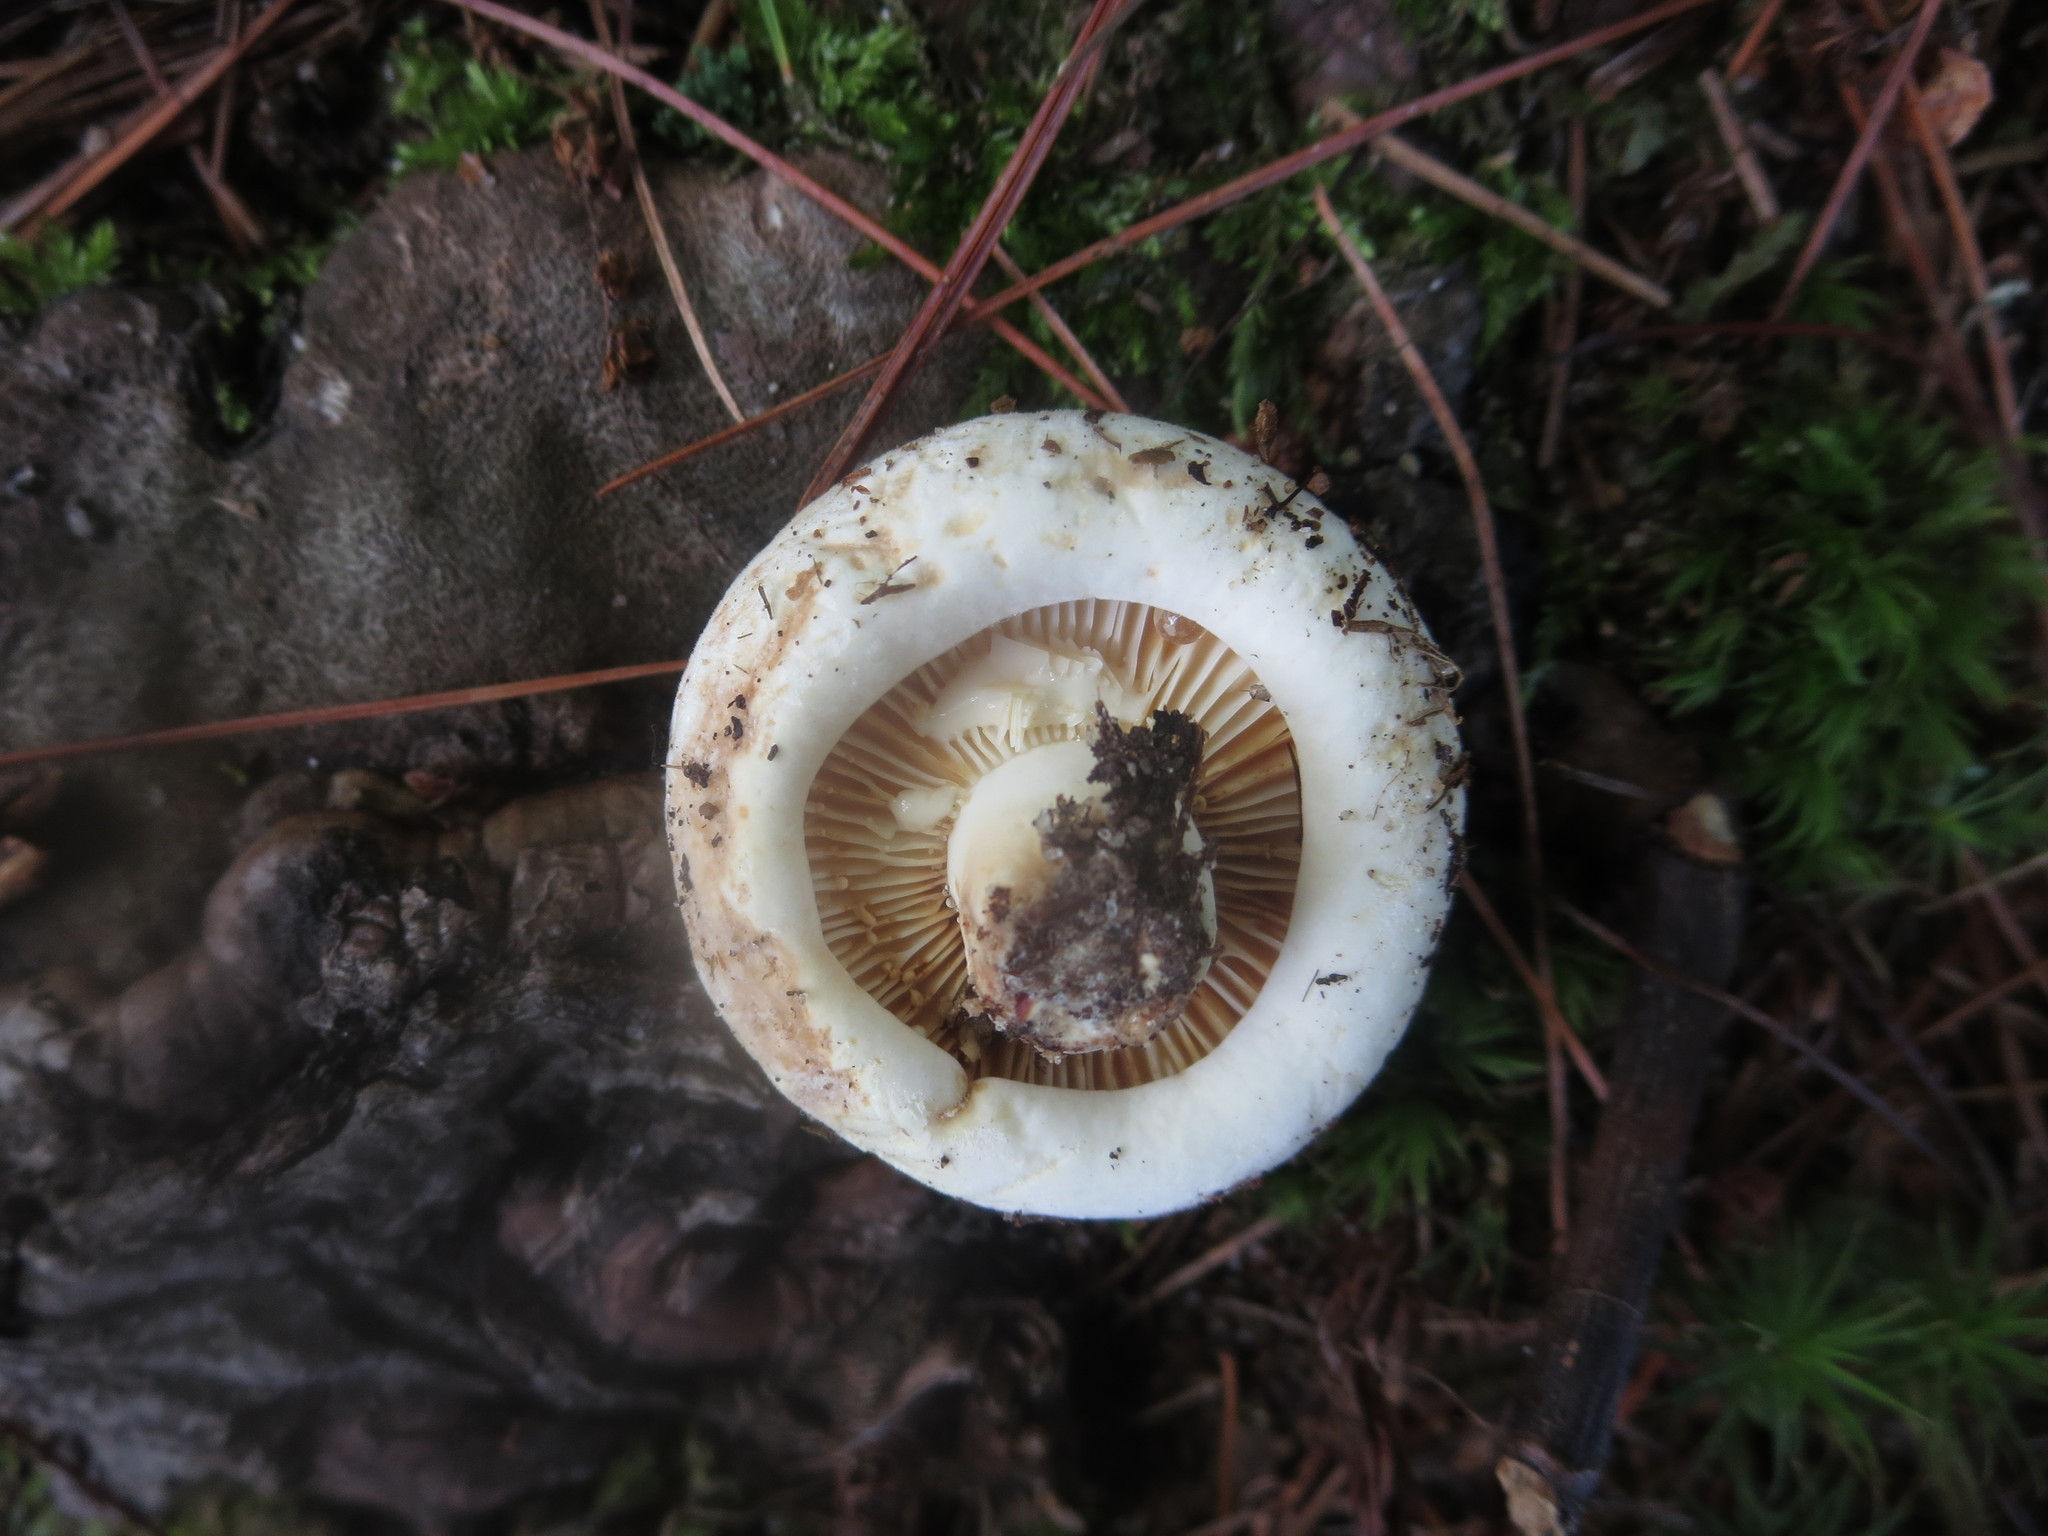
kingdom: Fungi
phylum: Basidiomycota
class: Agaricomycetes
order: Russulales
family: Russulaceae
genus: Lactifluus
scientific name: Lactifluus subvellereus
